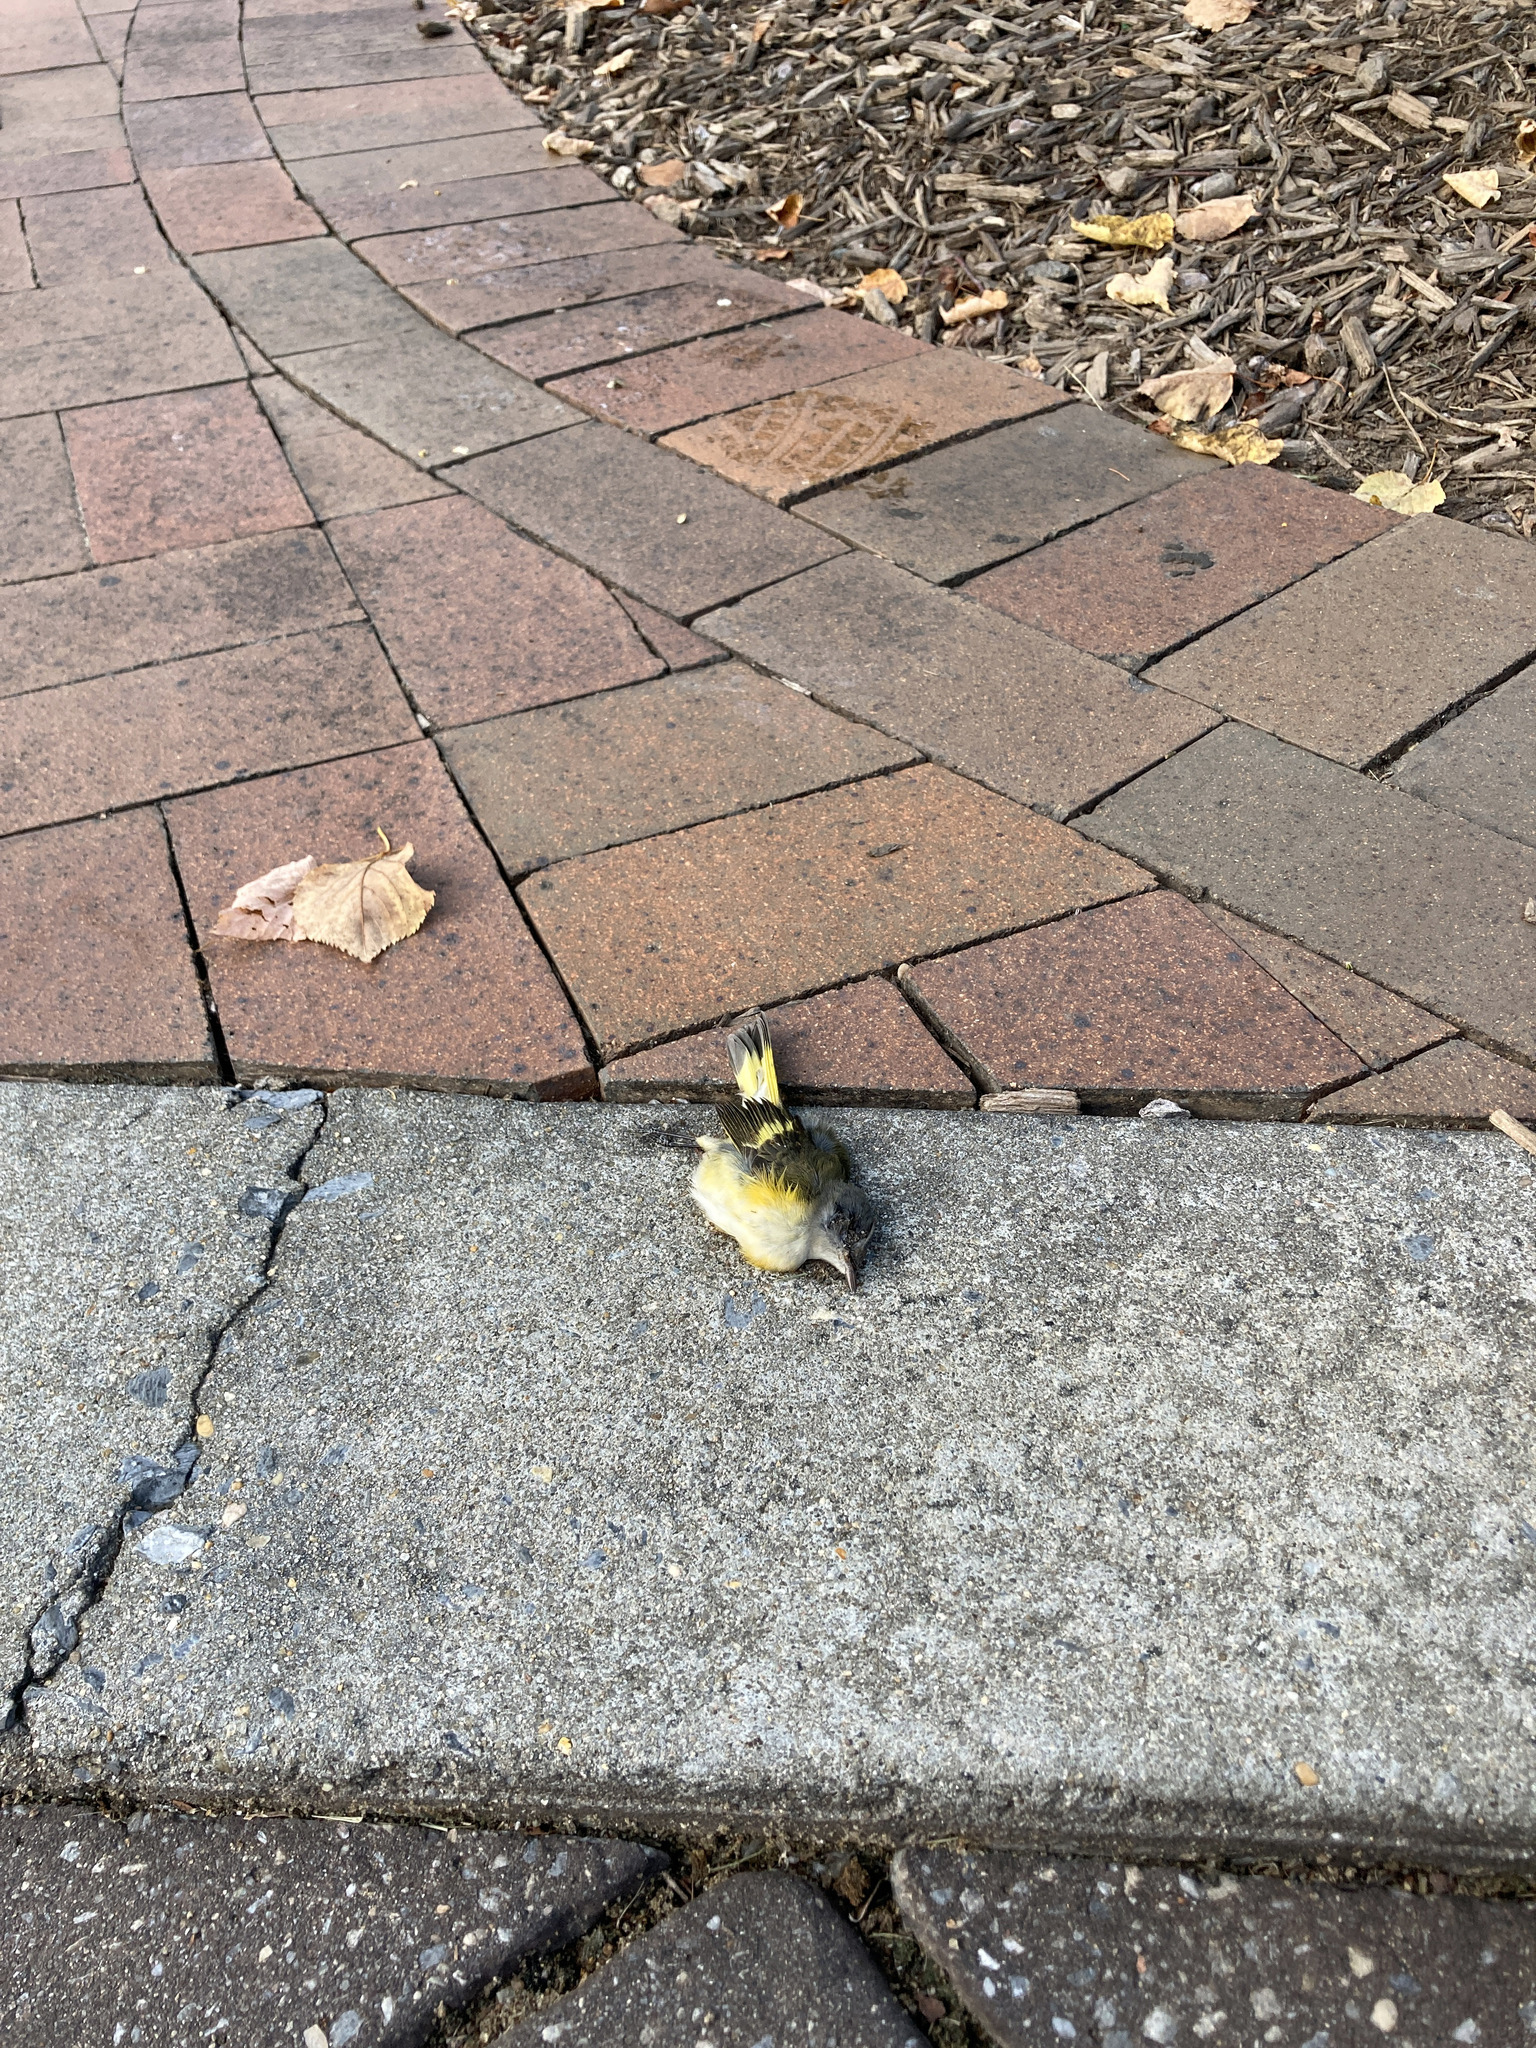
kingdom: Animalia
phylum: Chordata
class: Aves
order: Passeriformes
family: Parulidae
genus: Setophaga
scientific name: Setophaga ruticilla
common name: American redstart
